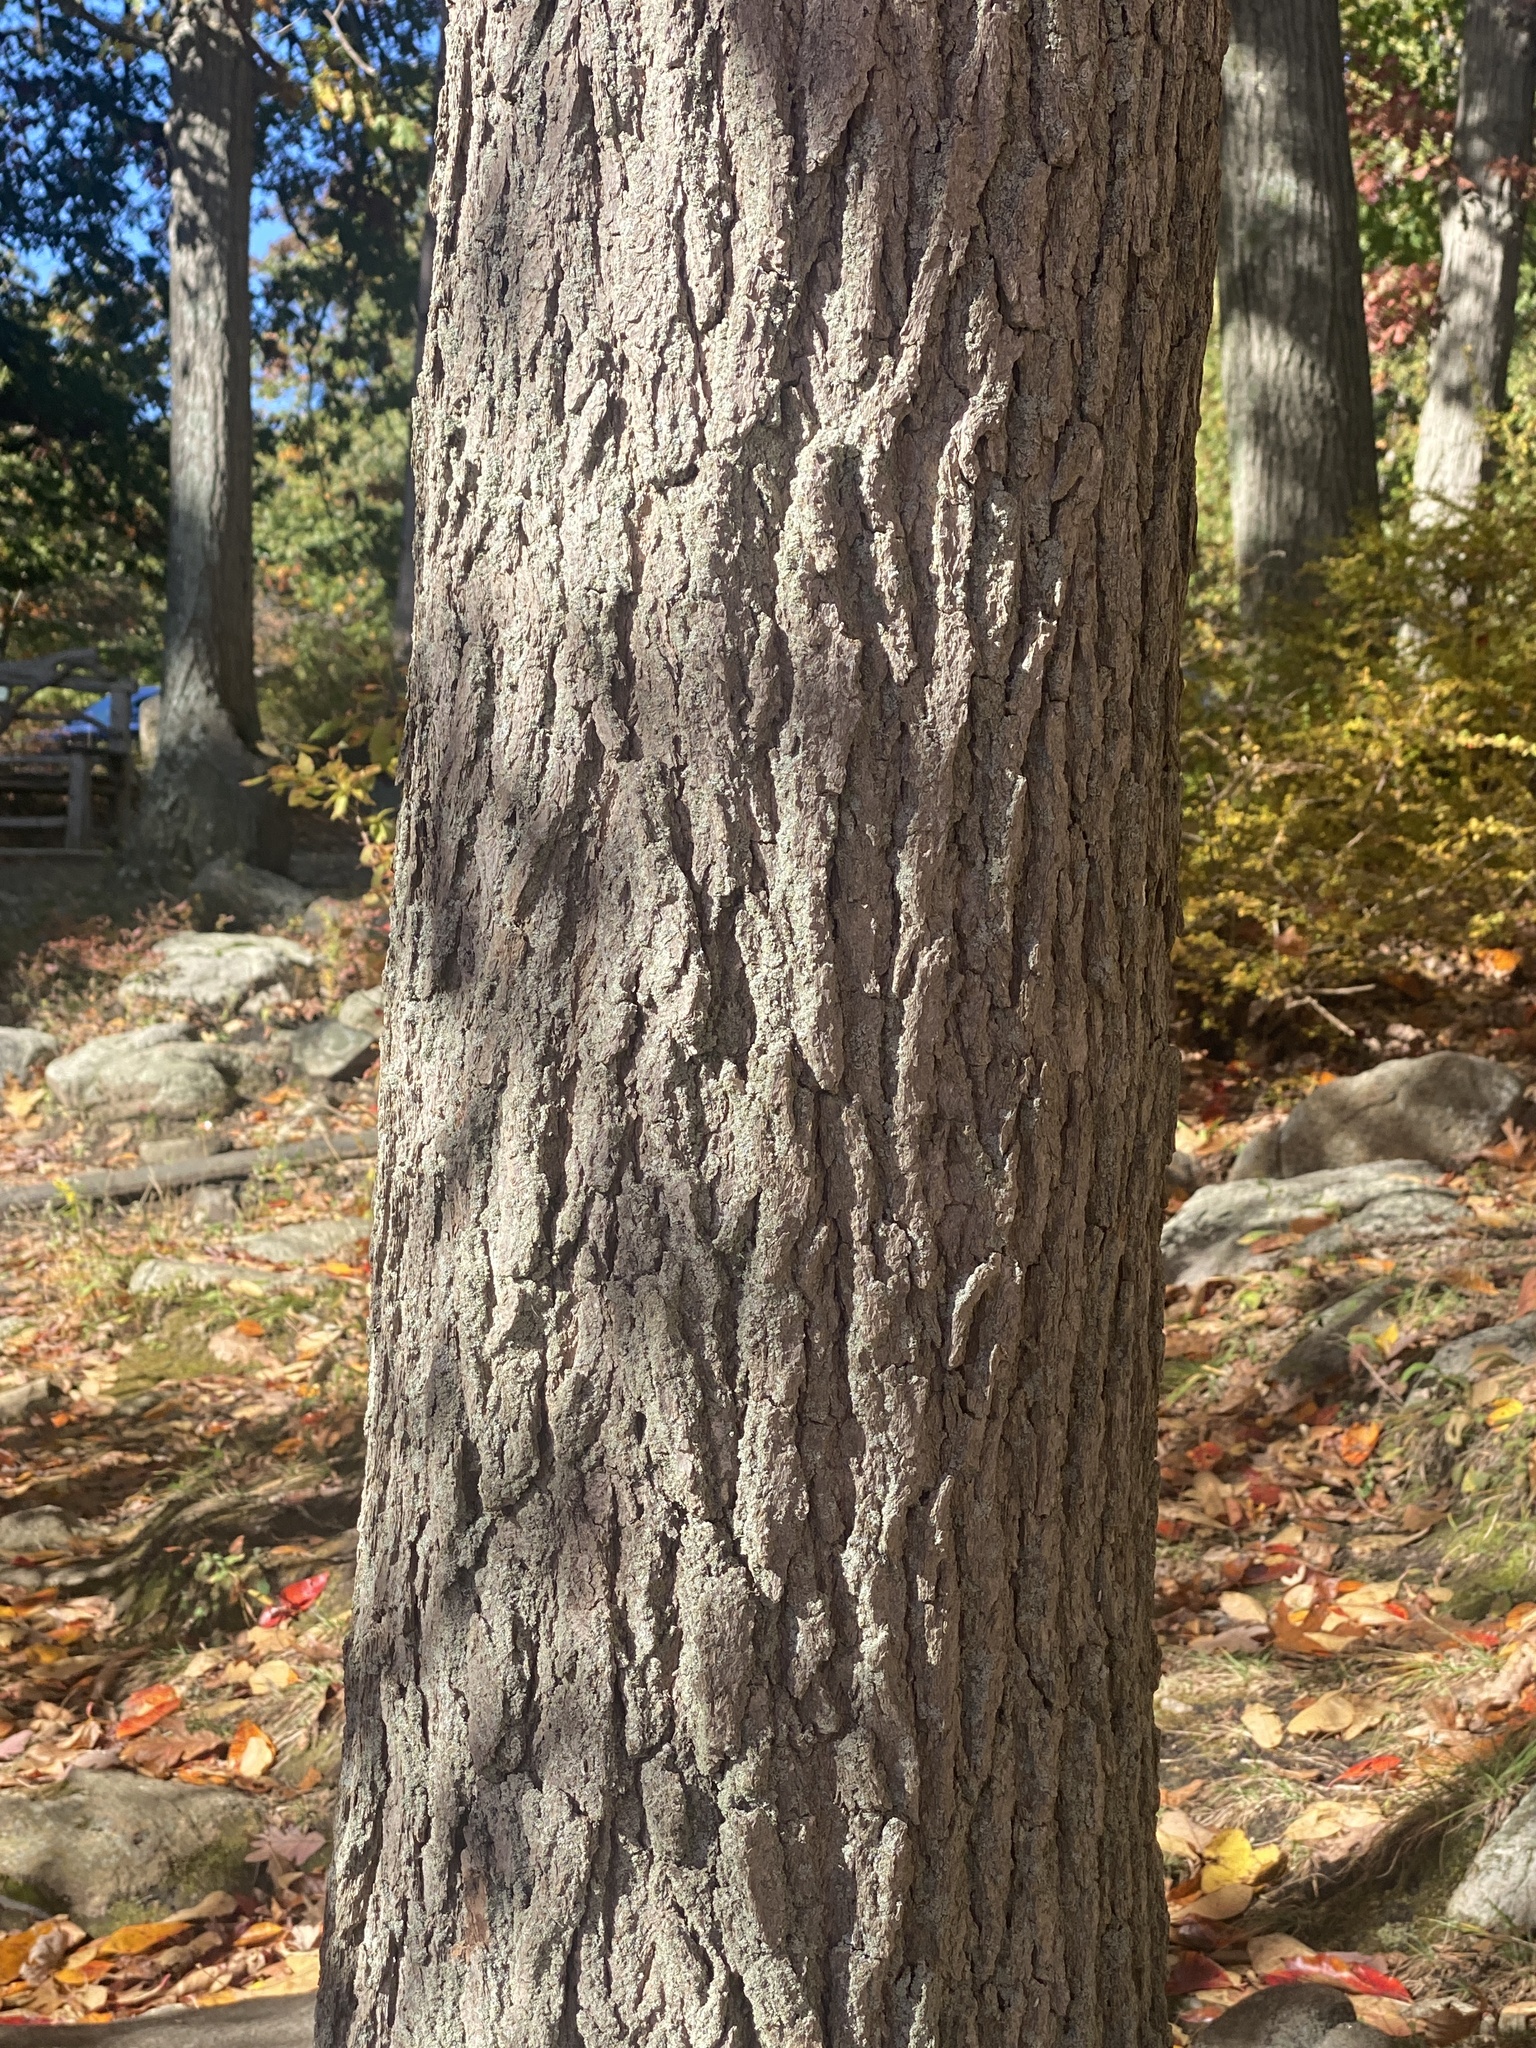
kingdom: Plantae
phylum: Tracheophyta
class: Magnoliopsida
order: Cornales
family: Nyssaceae
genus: Nyssa
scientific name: Nyssa sylvatica
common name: Black tupelo
